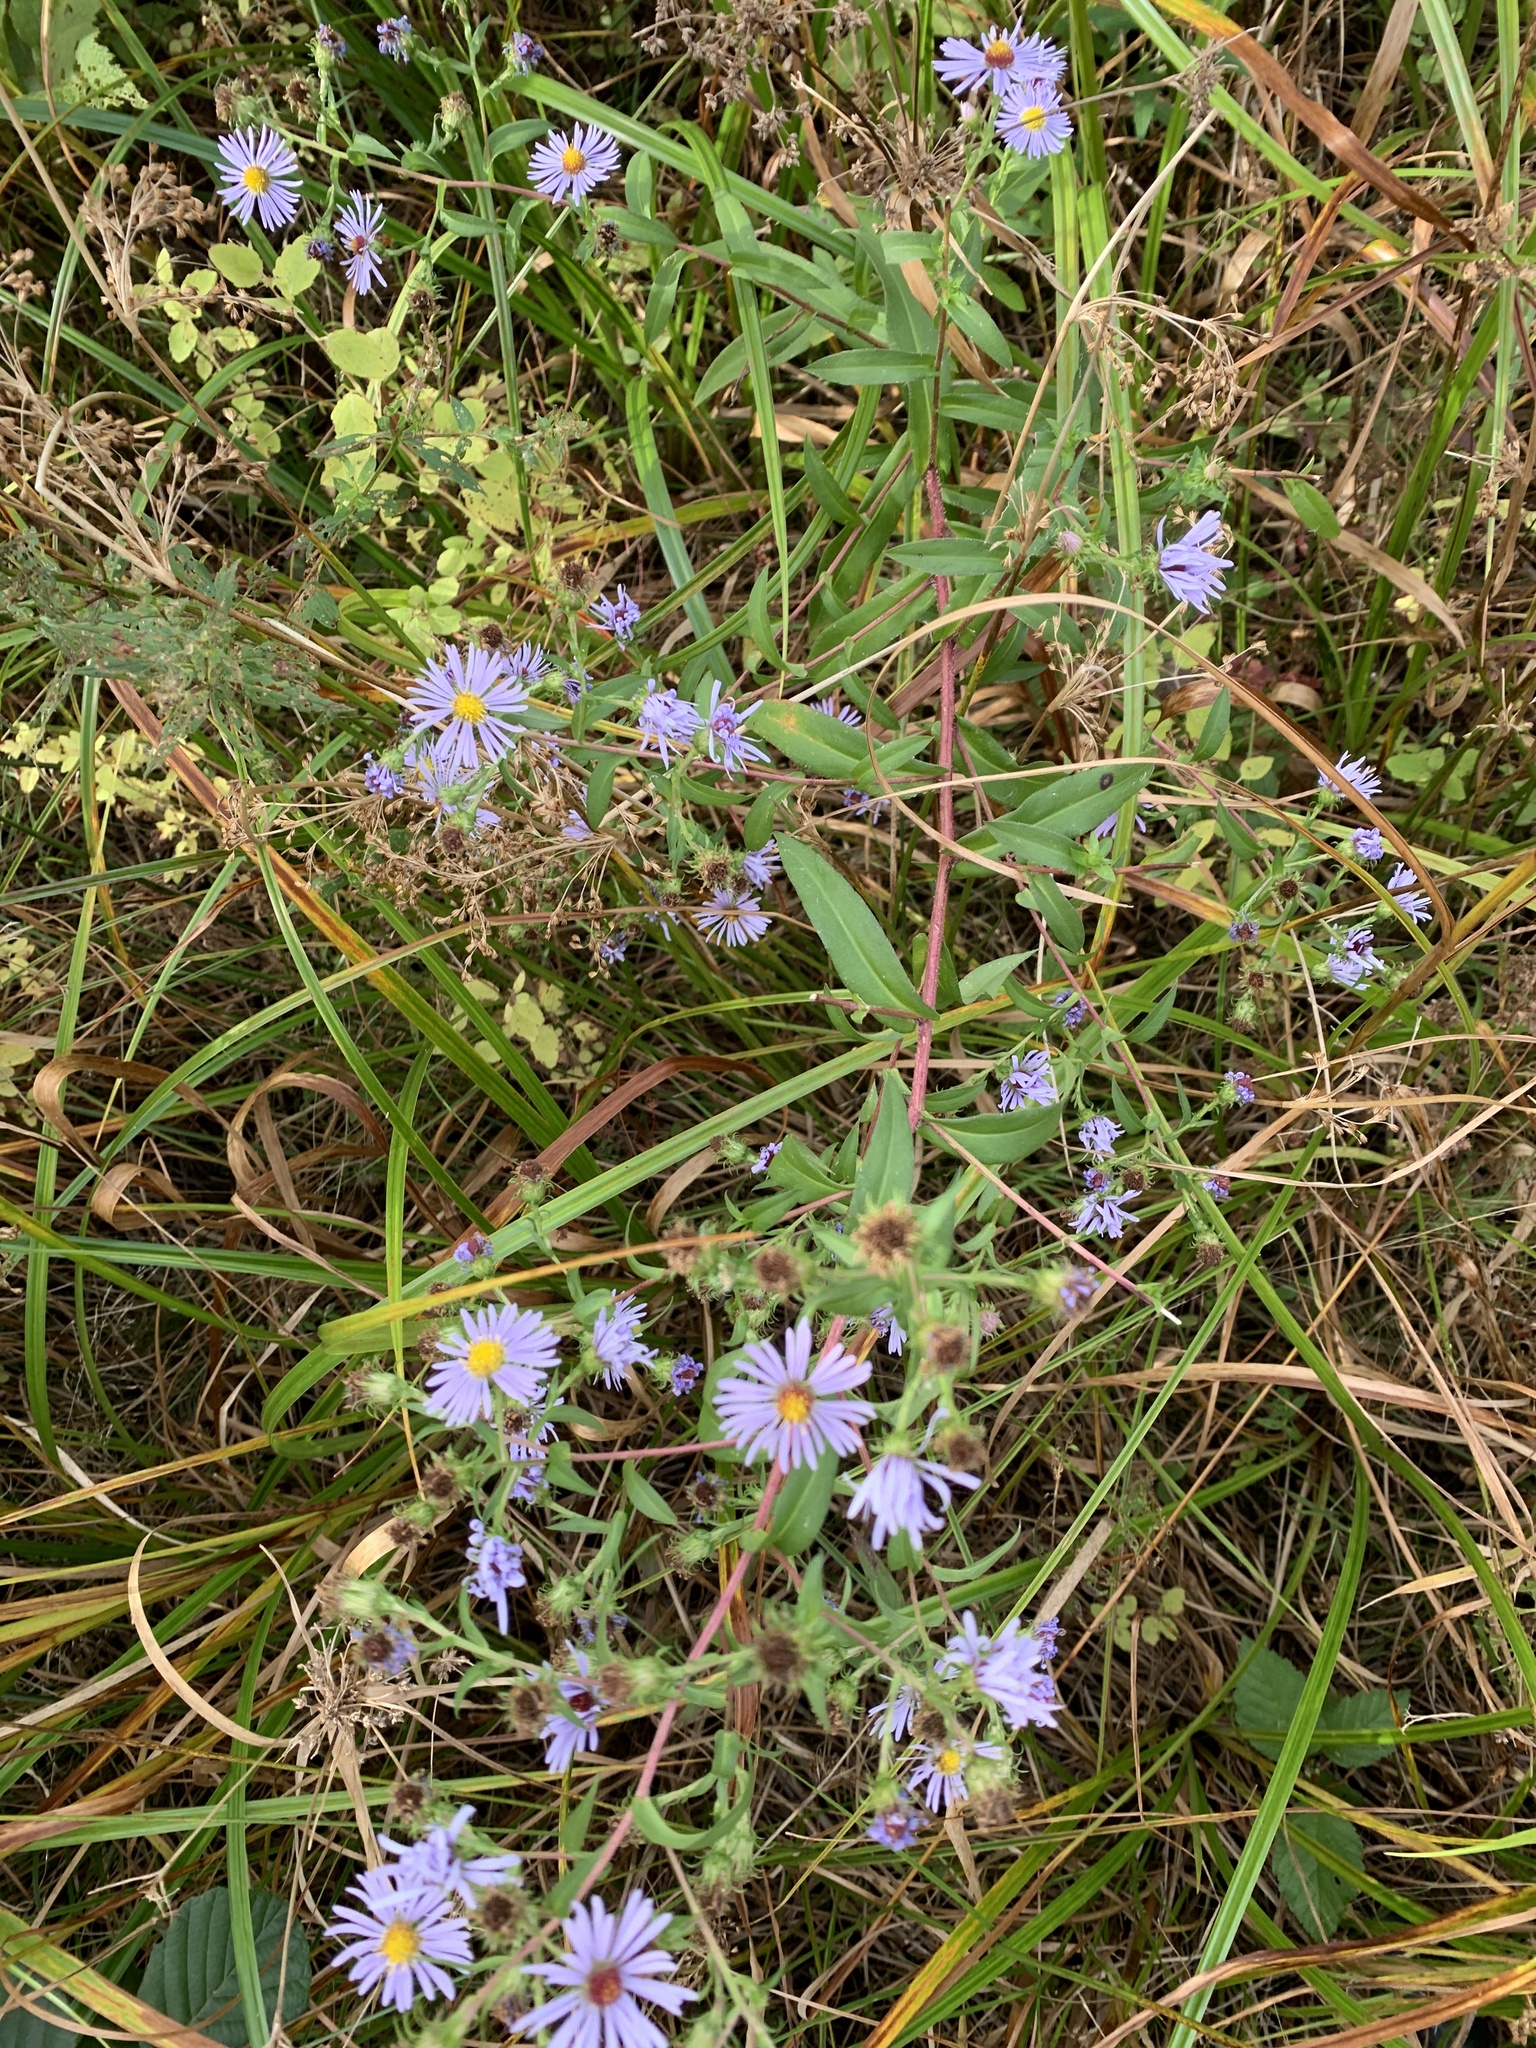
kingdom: Plantae
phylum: Tracheophyta
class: Magnoliopsida
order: Asterales
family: Asteraceae
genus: Symphyotrichum
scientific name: Symphyotrichum puniceum
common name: Bog aster
